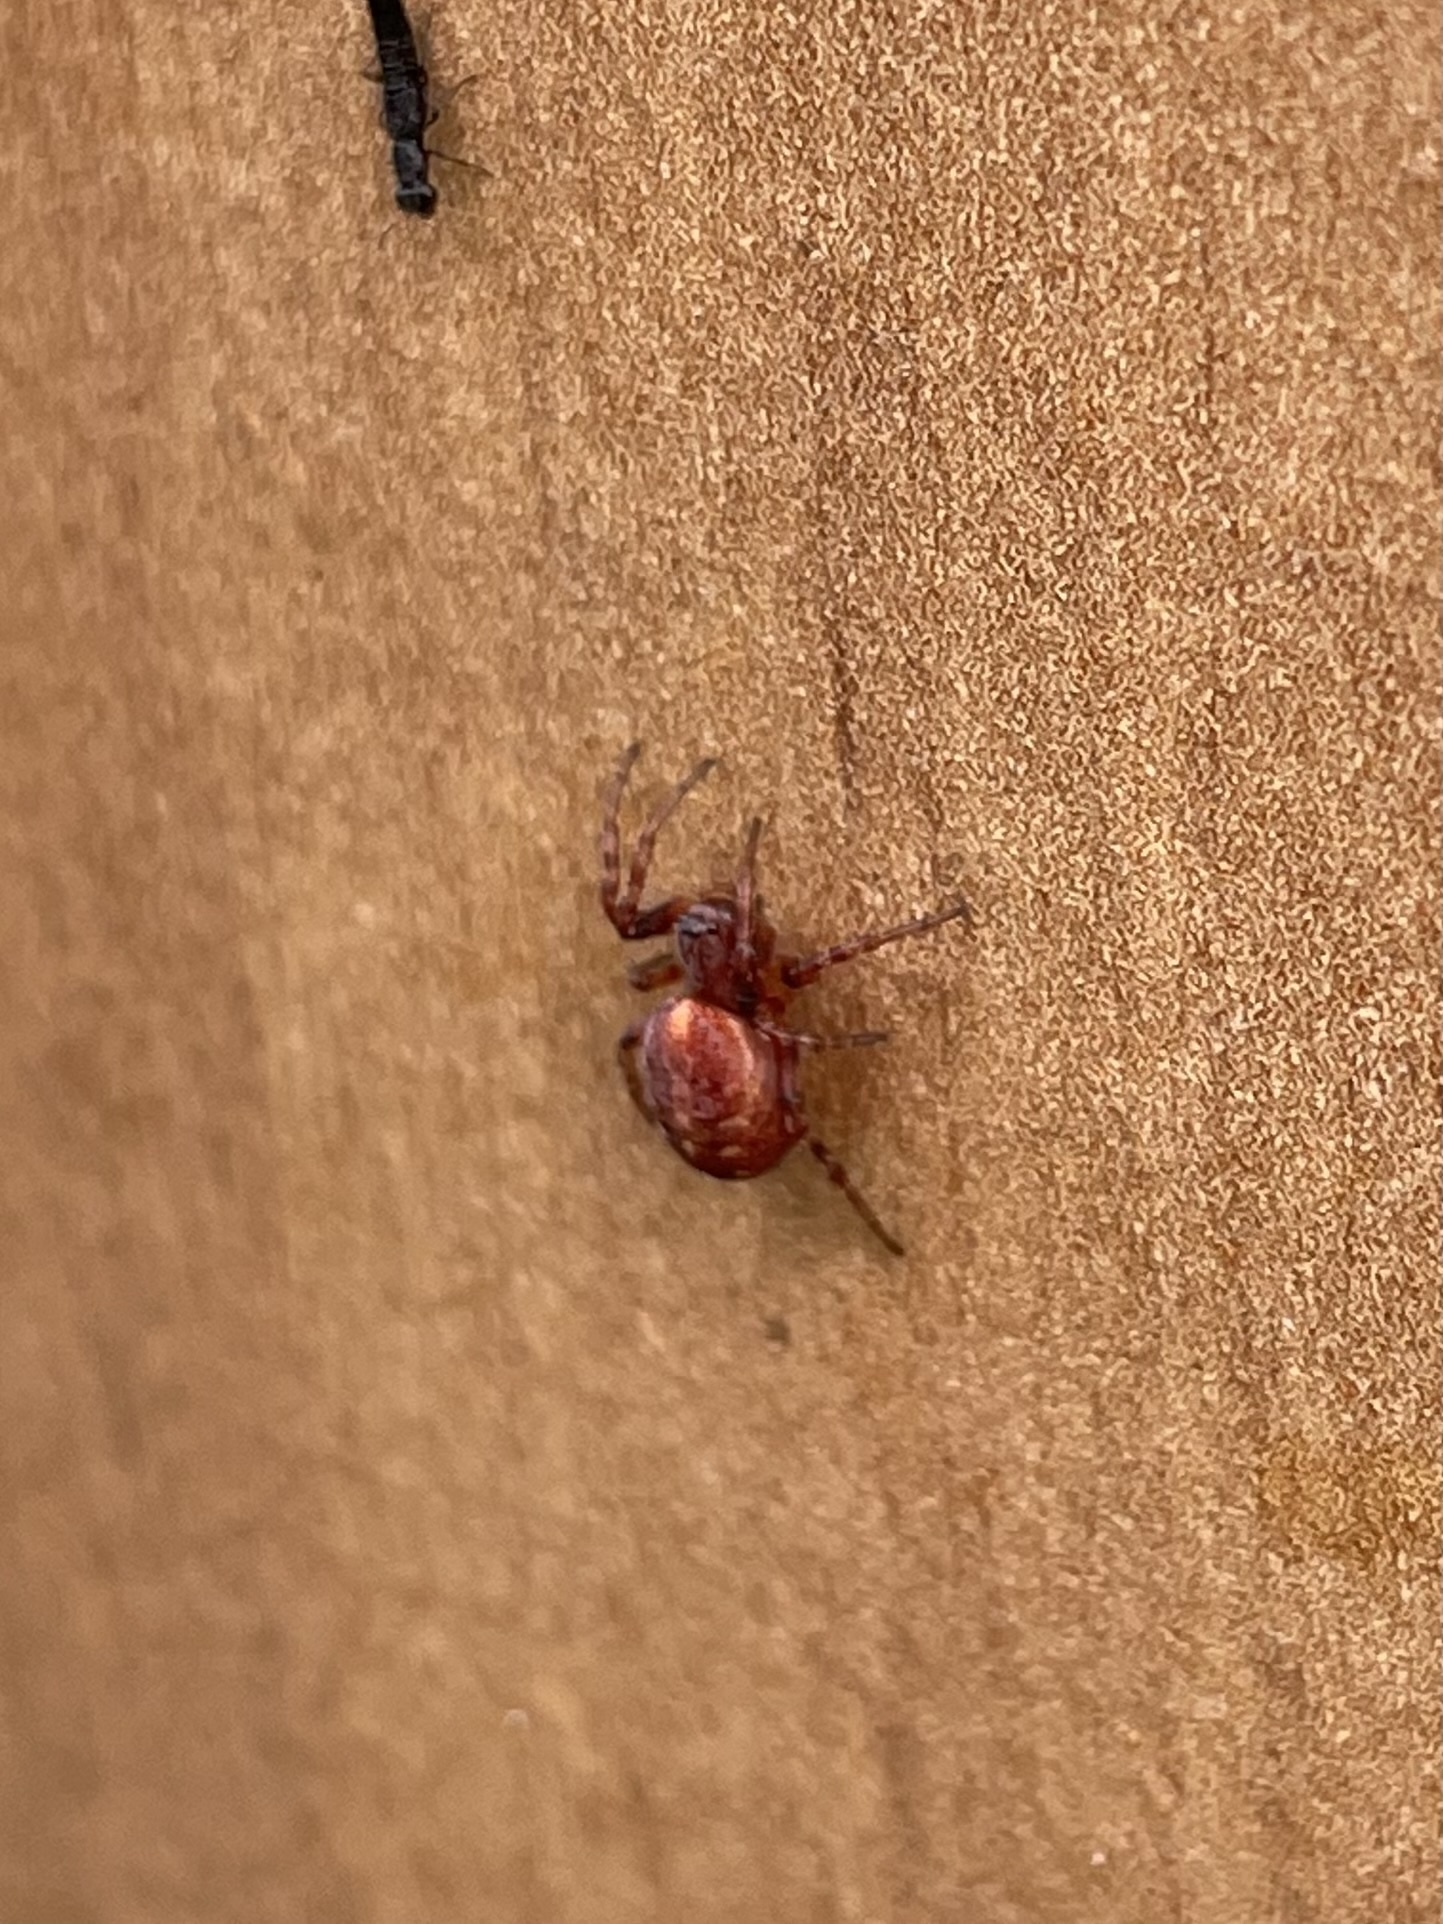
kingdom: Animalia
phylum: Arthropoda
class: Arachnida
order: Araneae
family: Araneidae
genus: Cercidia
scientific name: Cercidia prominens
